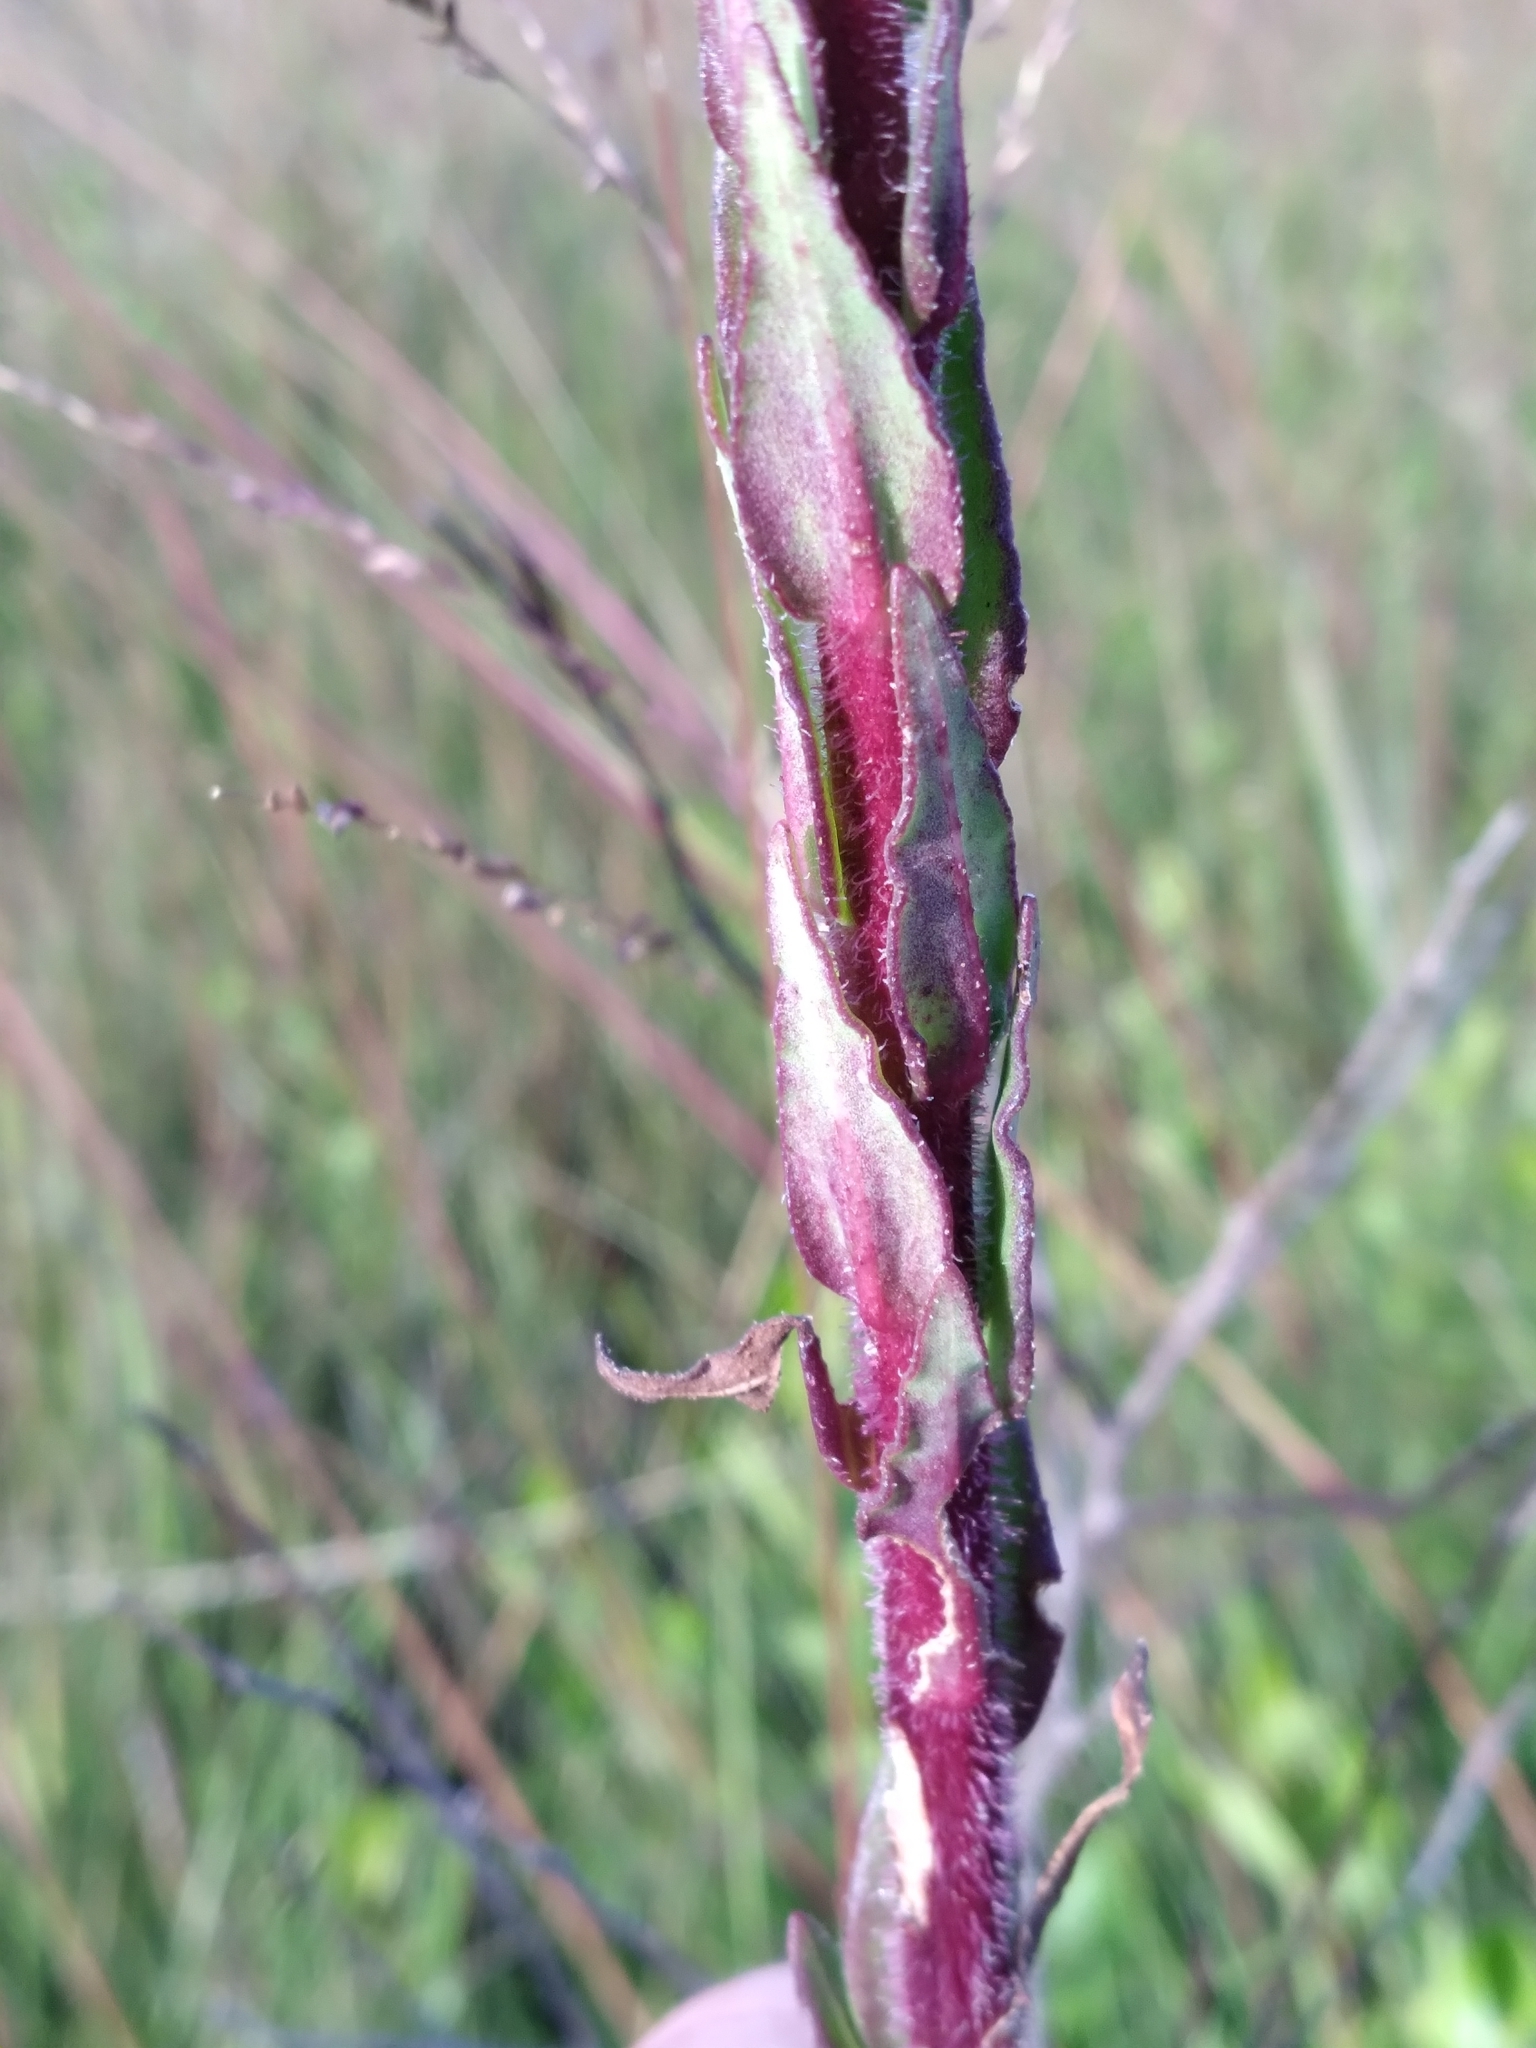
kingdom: Plantae
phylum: Tracheophyta
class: Magnoliopsida
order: Asterales
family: Asteraceae
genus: Carphephorus
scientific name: Carphephorus paniculatus
